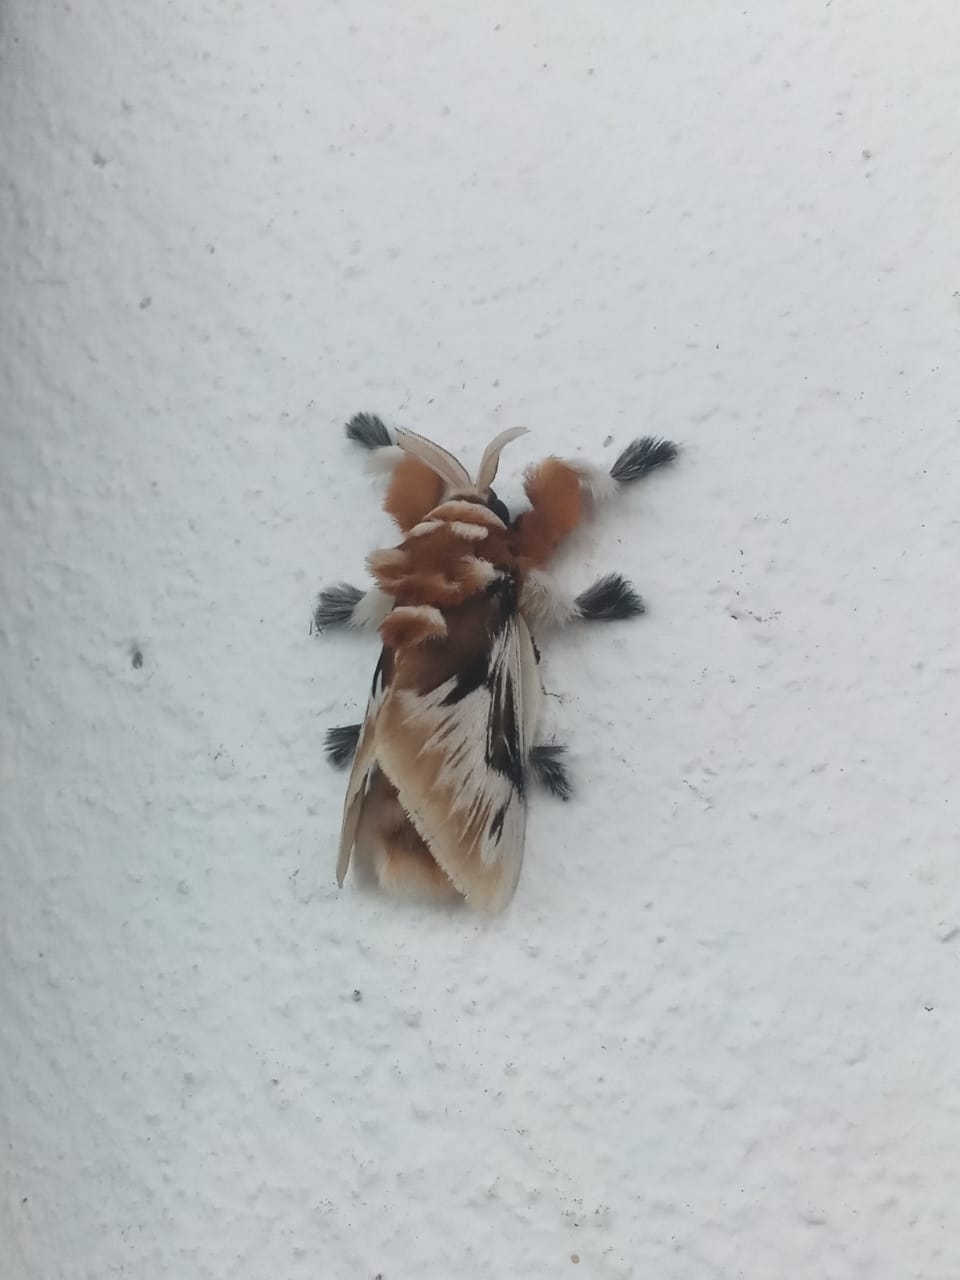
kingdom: Animalia
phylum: Arthropoda
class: Insecta
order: Lepidoptera
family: Megalopygidae
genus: Megalopyge
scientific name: Megalopyge salebrosa
